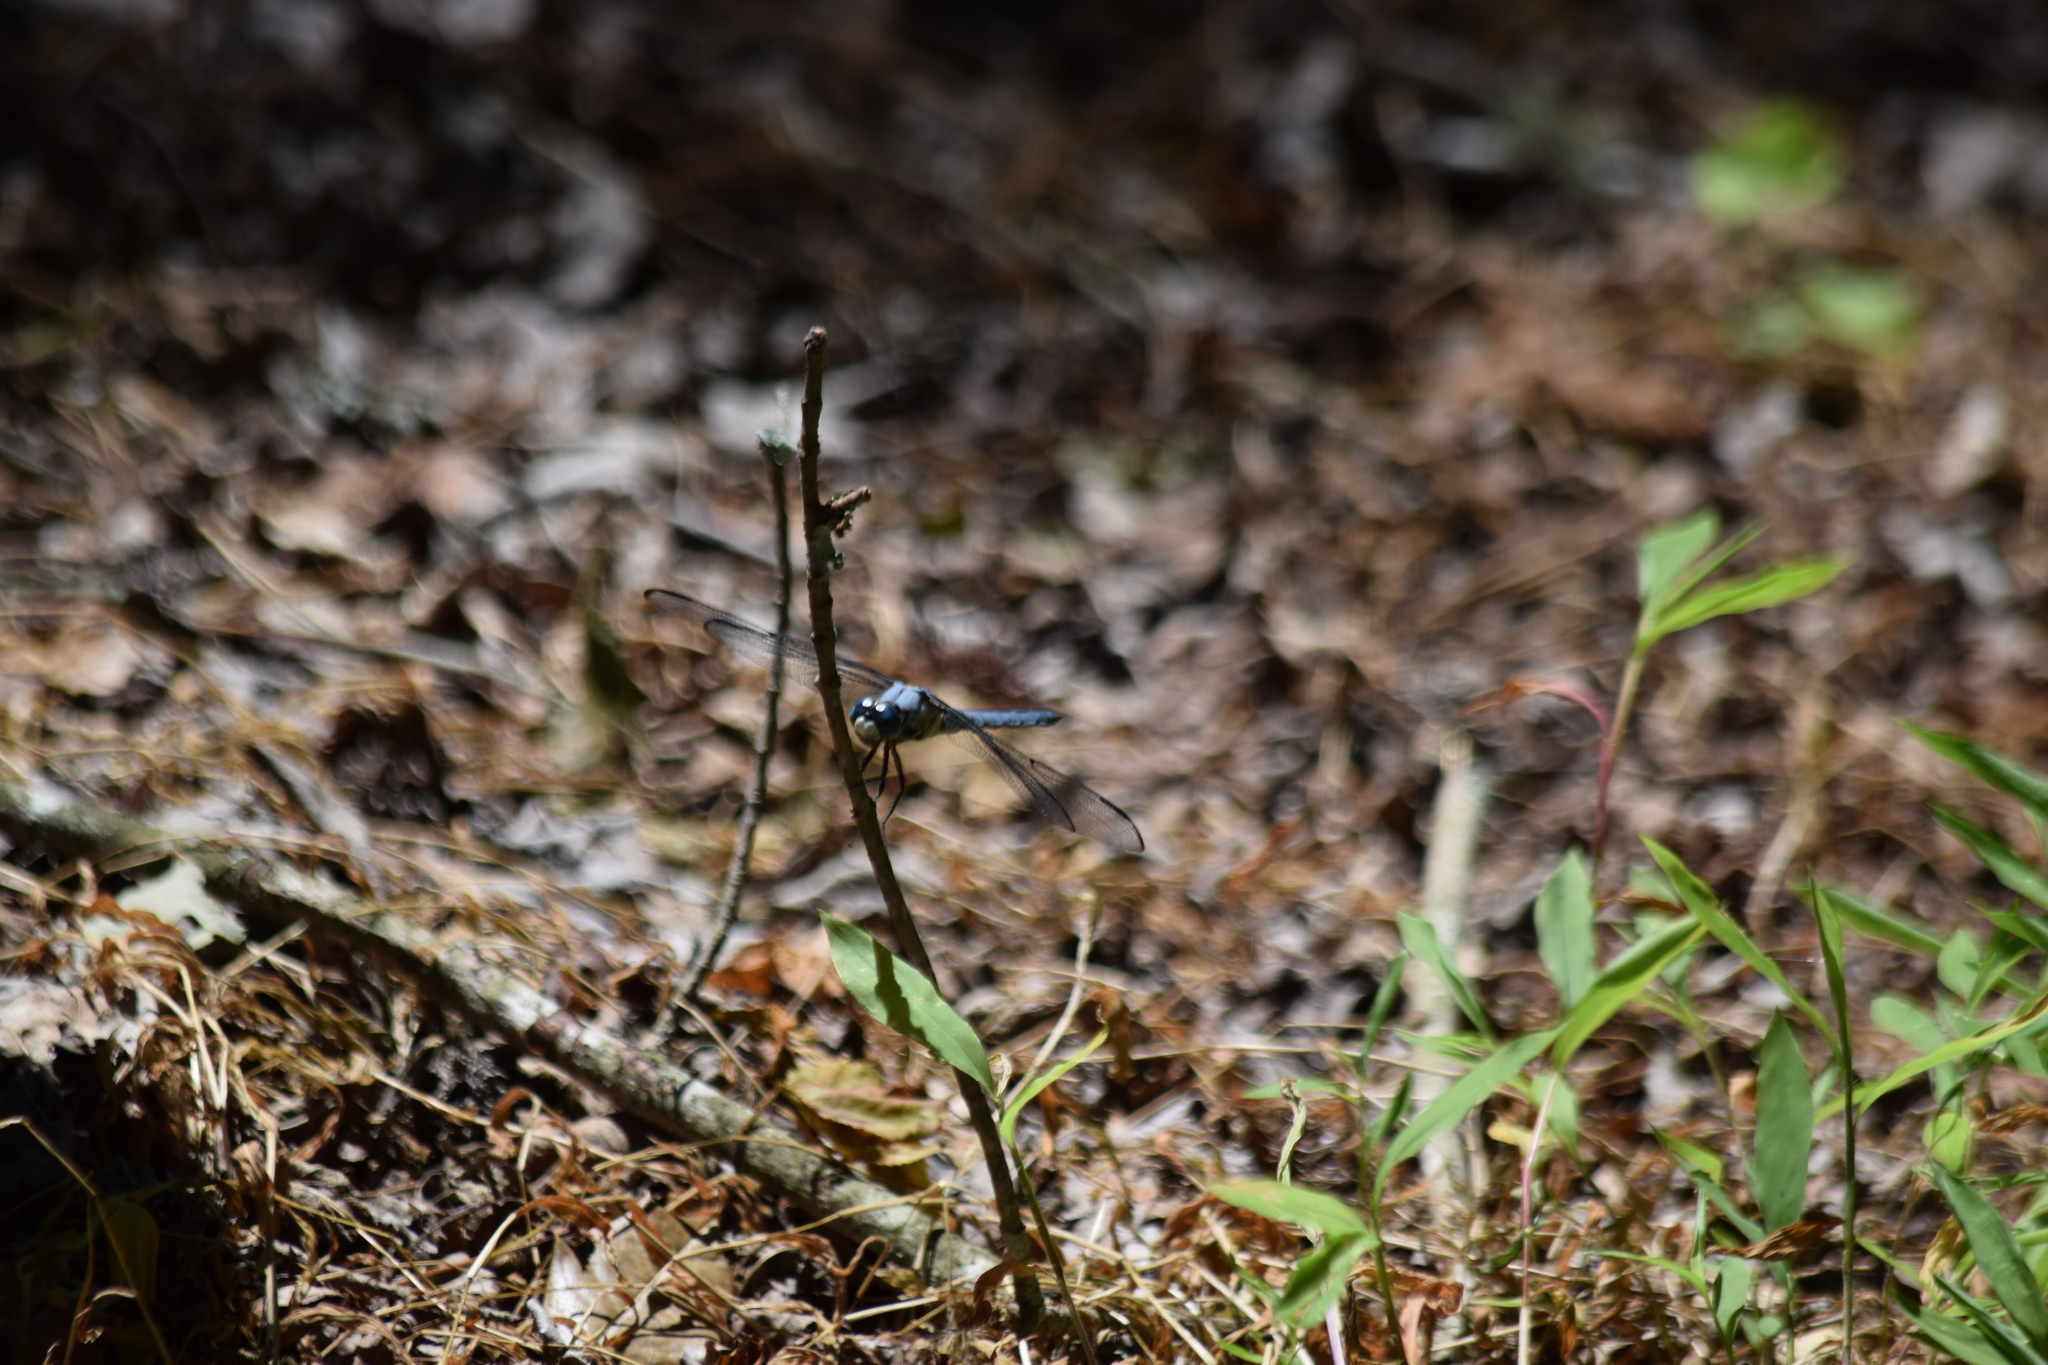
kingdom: Animalia
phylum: Arthropoda
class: Insecta
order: Odonata
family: Libellulidae
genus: Libellula
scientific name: Libellula vibrans
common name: Great blue skimmer
